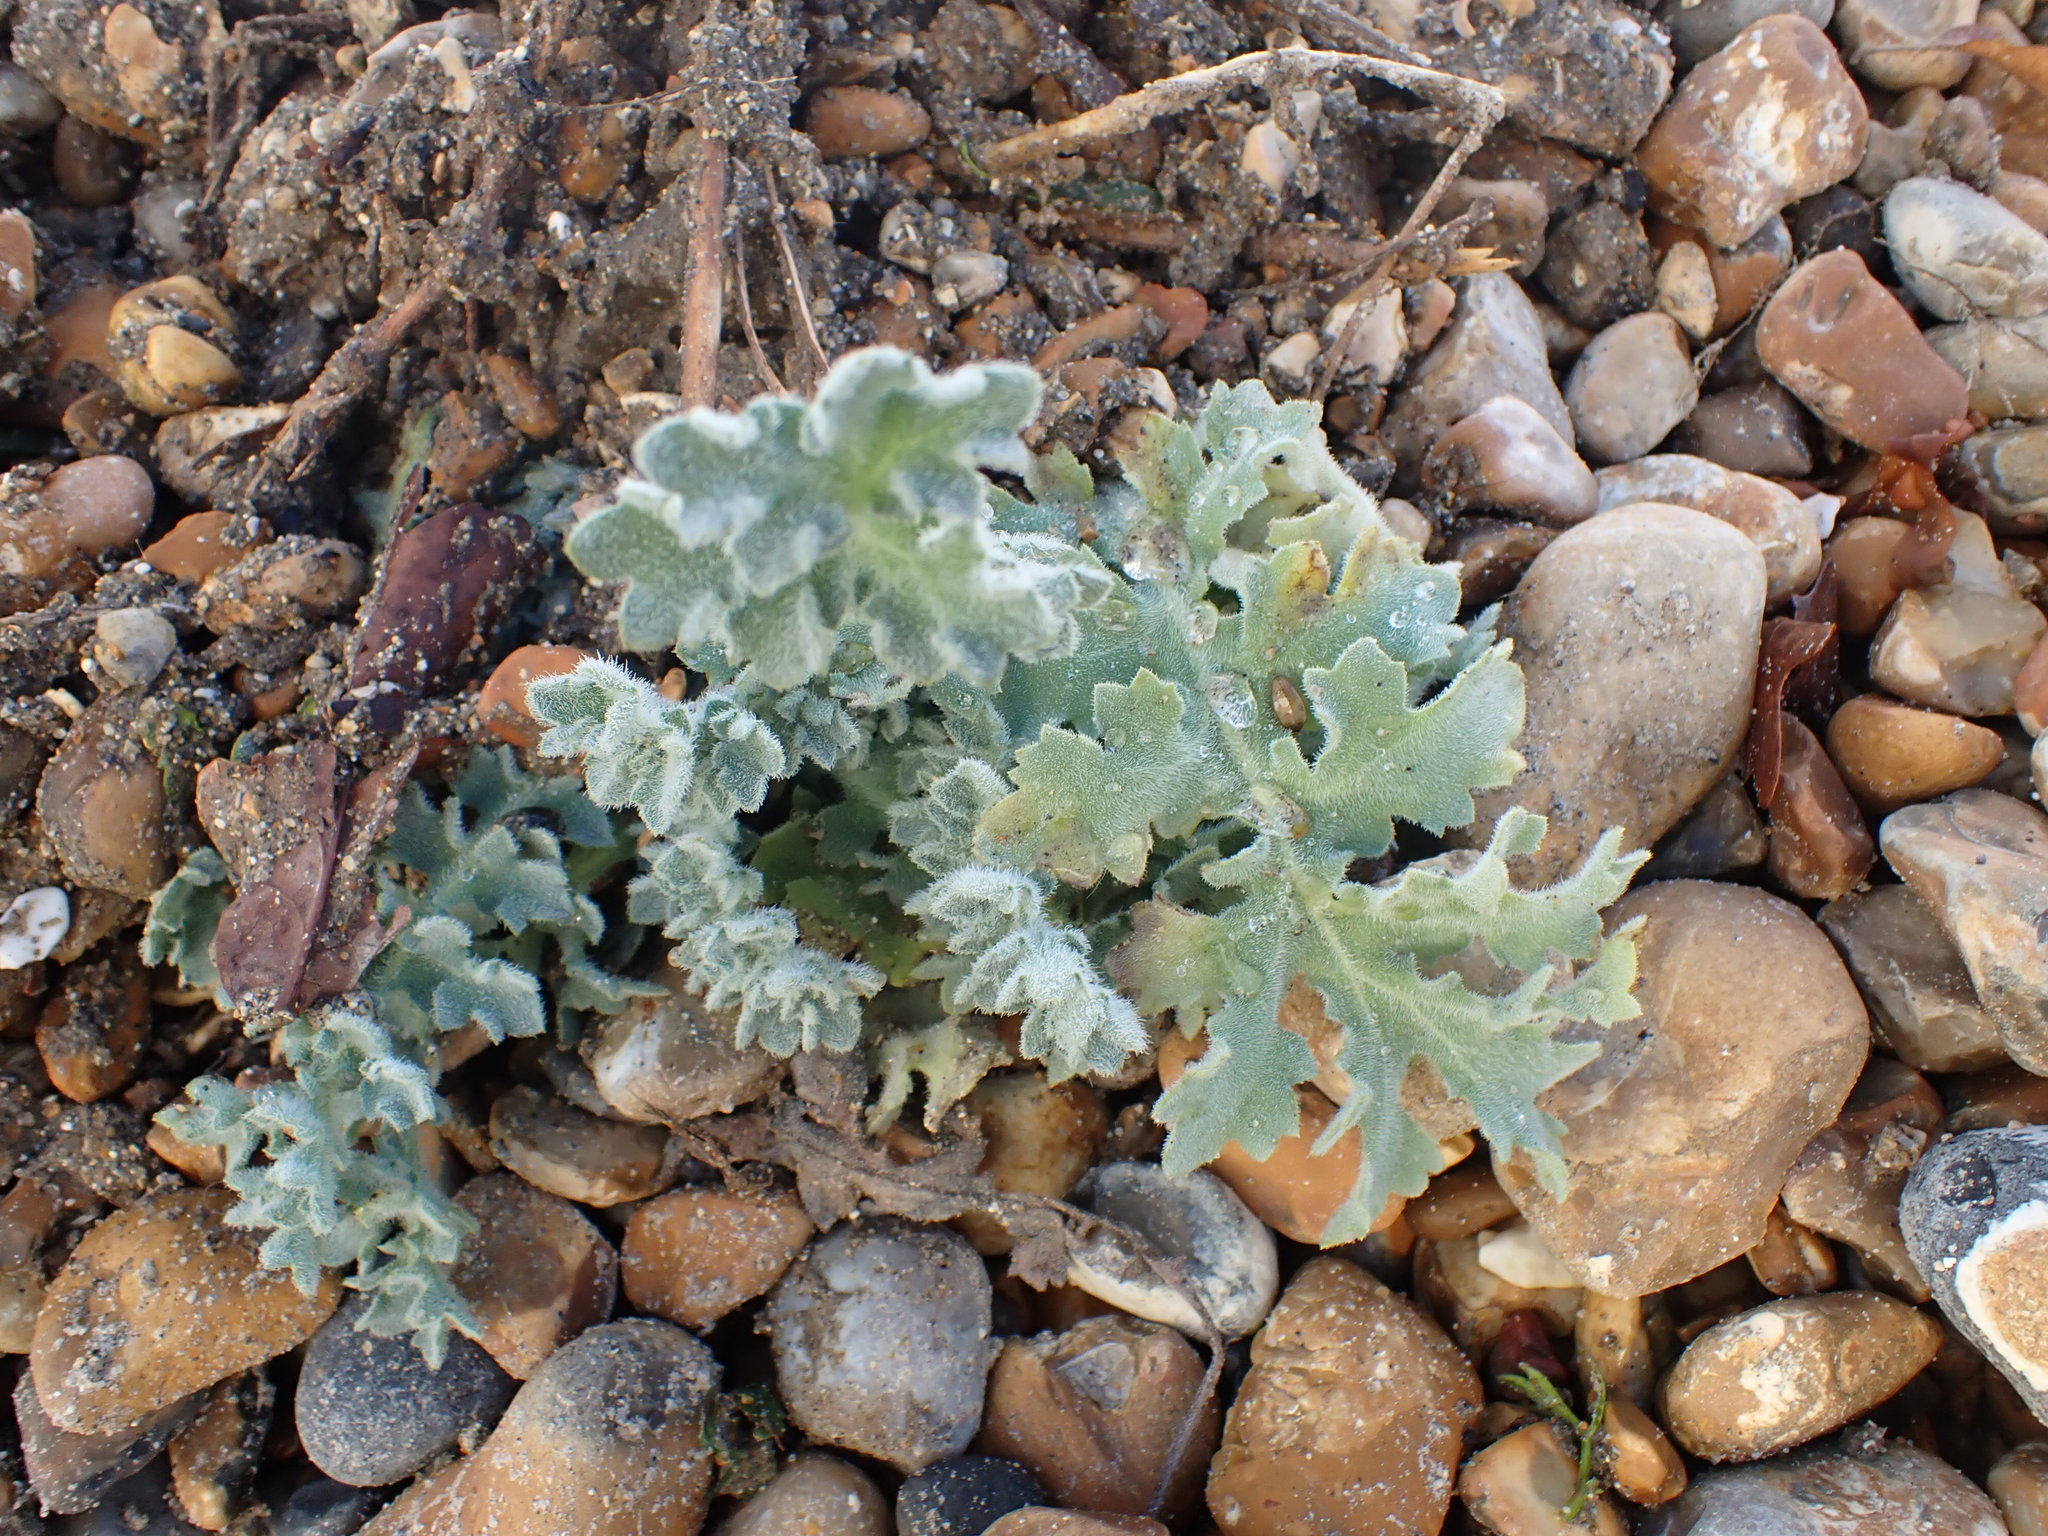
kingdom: Plantae
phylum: Tracheophyta
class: Magnoliopsida
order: Ranunculales
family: Papaveraceae
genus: Glaucium
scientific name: Glaucium flavum
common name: Yellow horned-poppy
